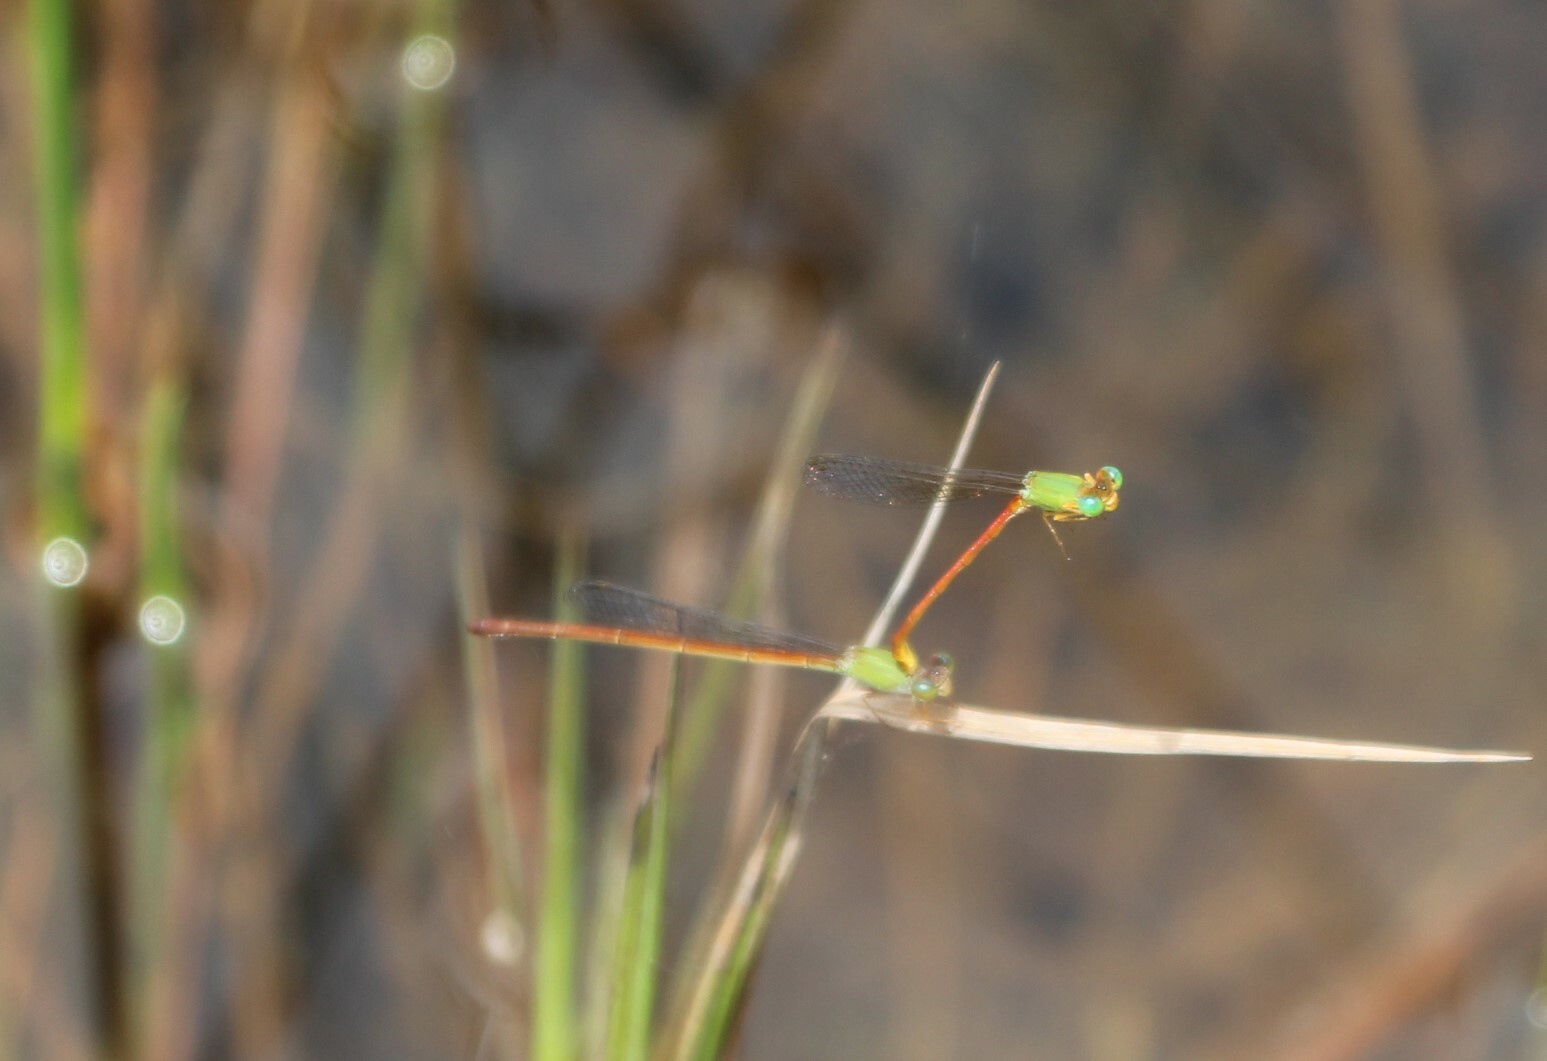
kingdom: Animalia
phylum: Arthropoda
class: Insecta
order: Odonata
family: Coenagrionidae
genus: Ceriagrion
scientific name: Ceriagrion whellani
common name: Yellow-faced waxtail
